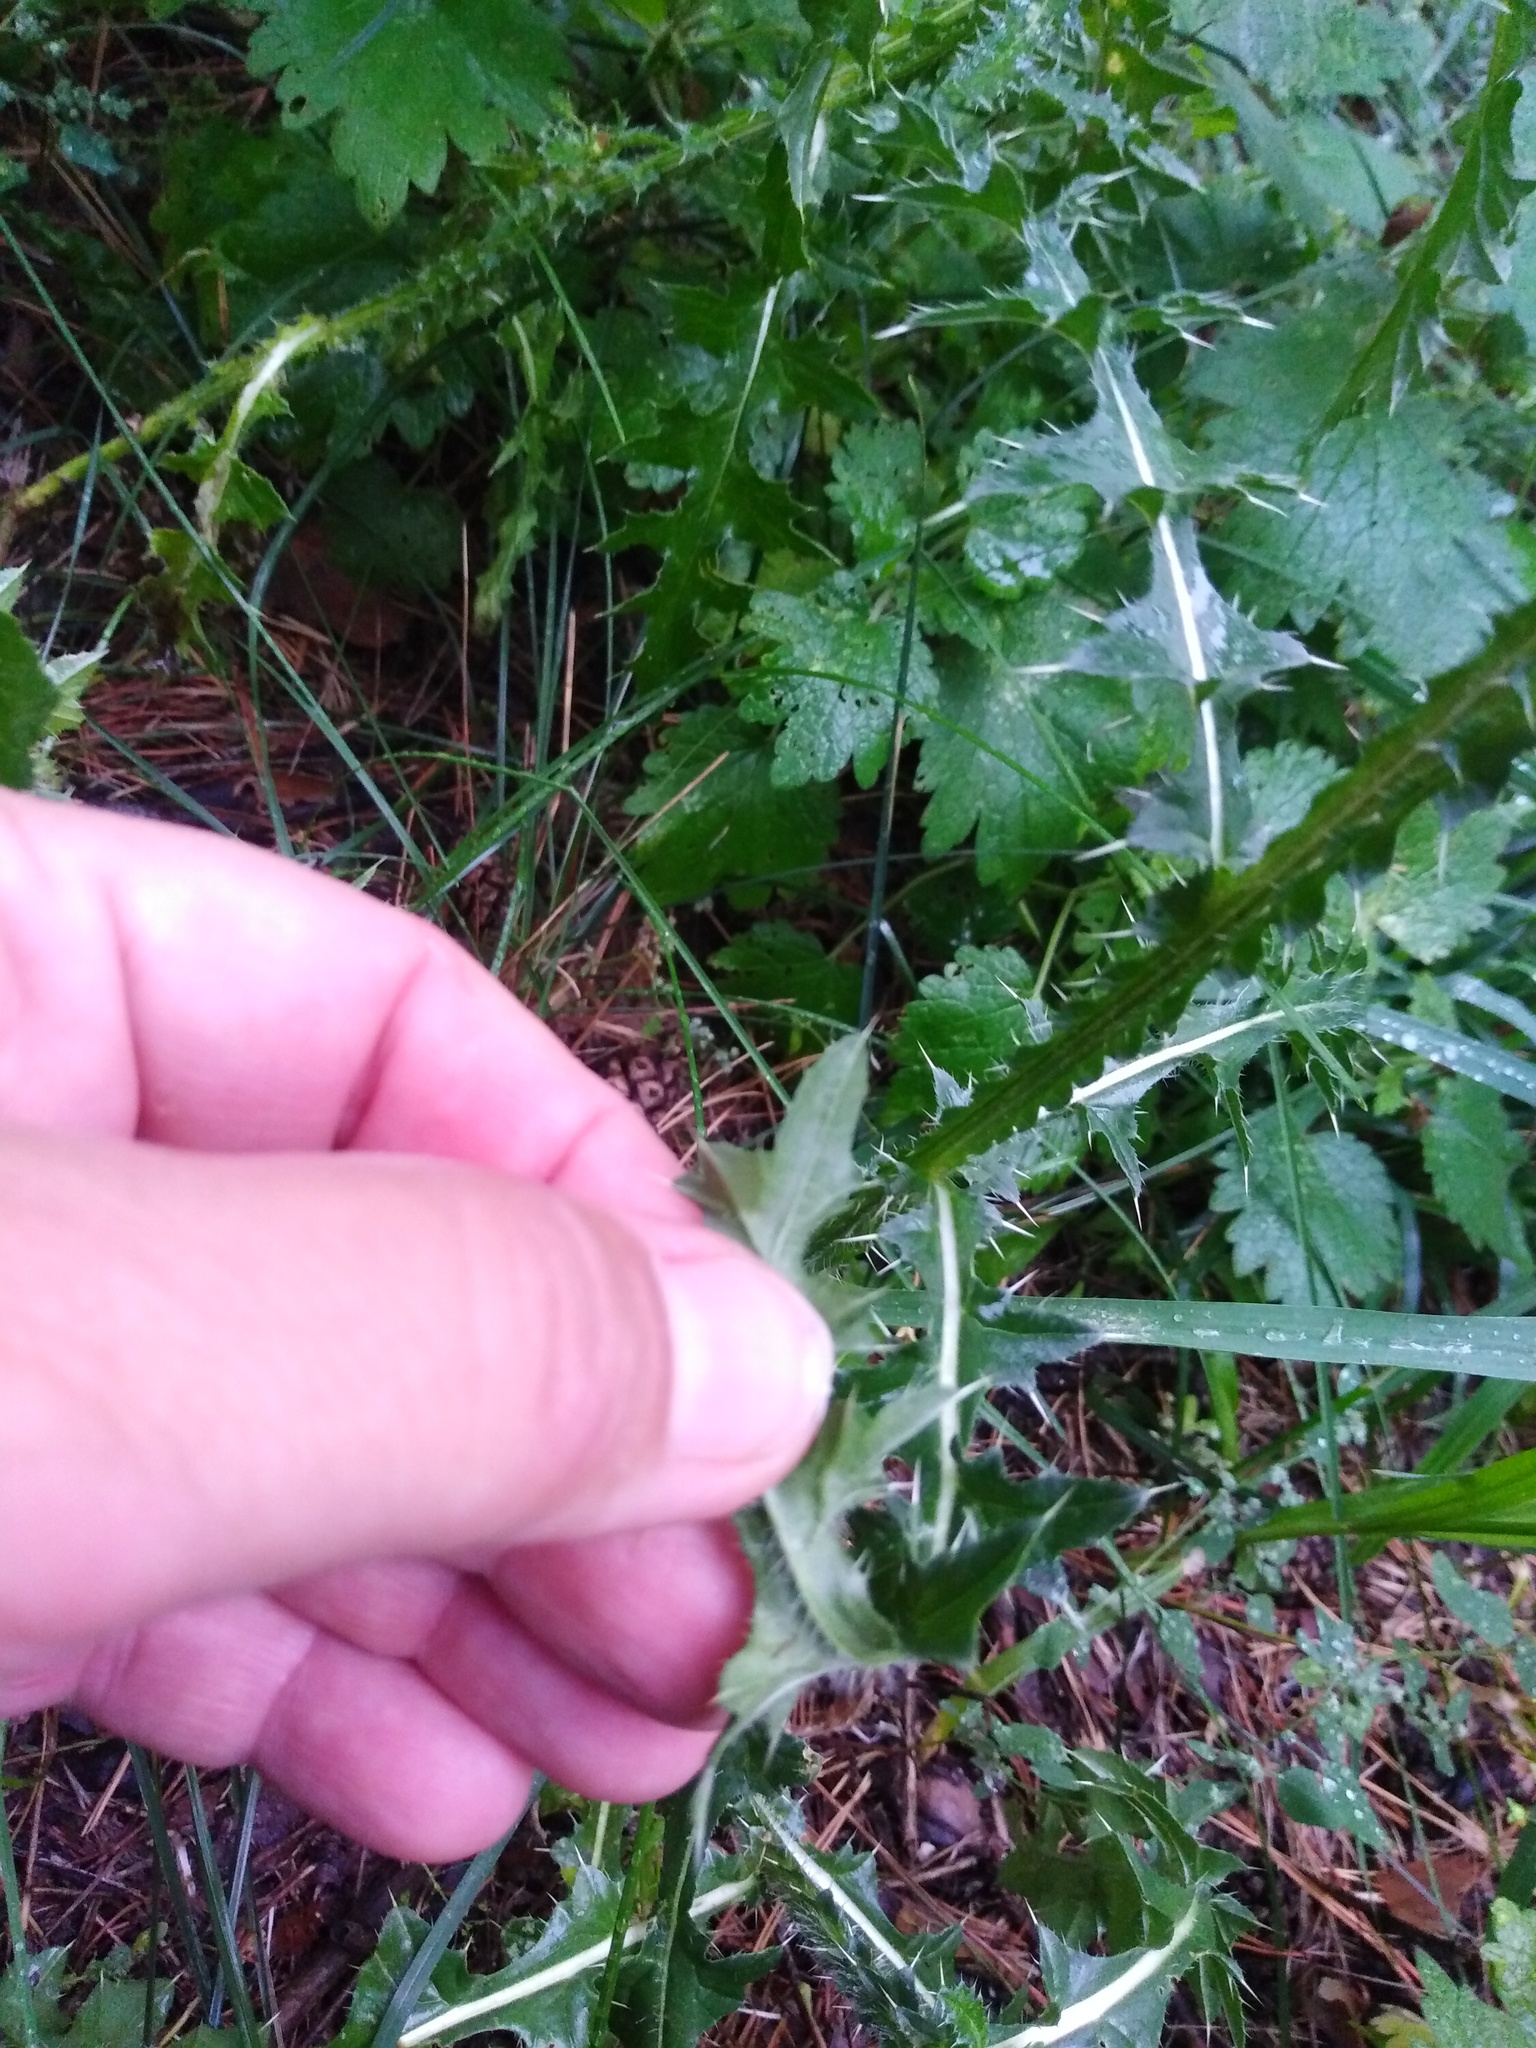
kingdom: Plantae
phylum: Tracheophyta
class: Magnoliopsida
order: Asterales
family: Asteraceae
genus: Carduus
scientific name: Carduus acanthoides
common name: Plumeless thistle
